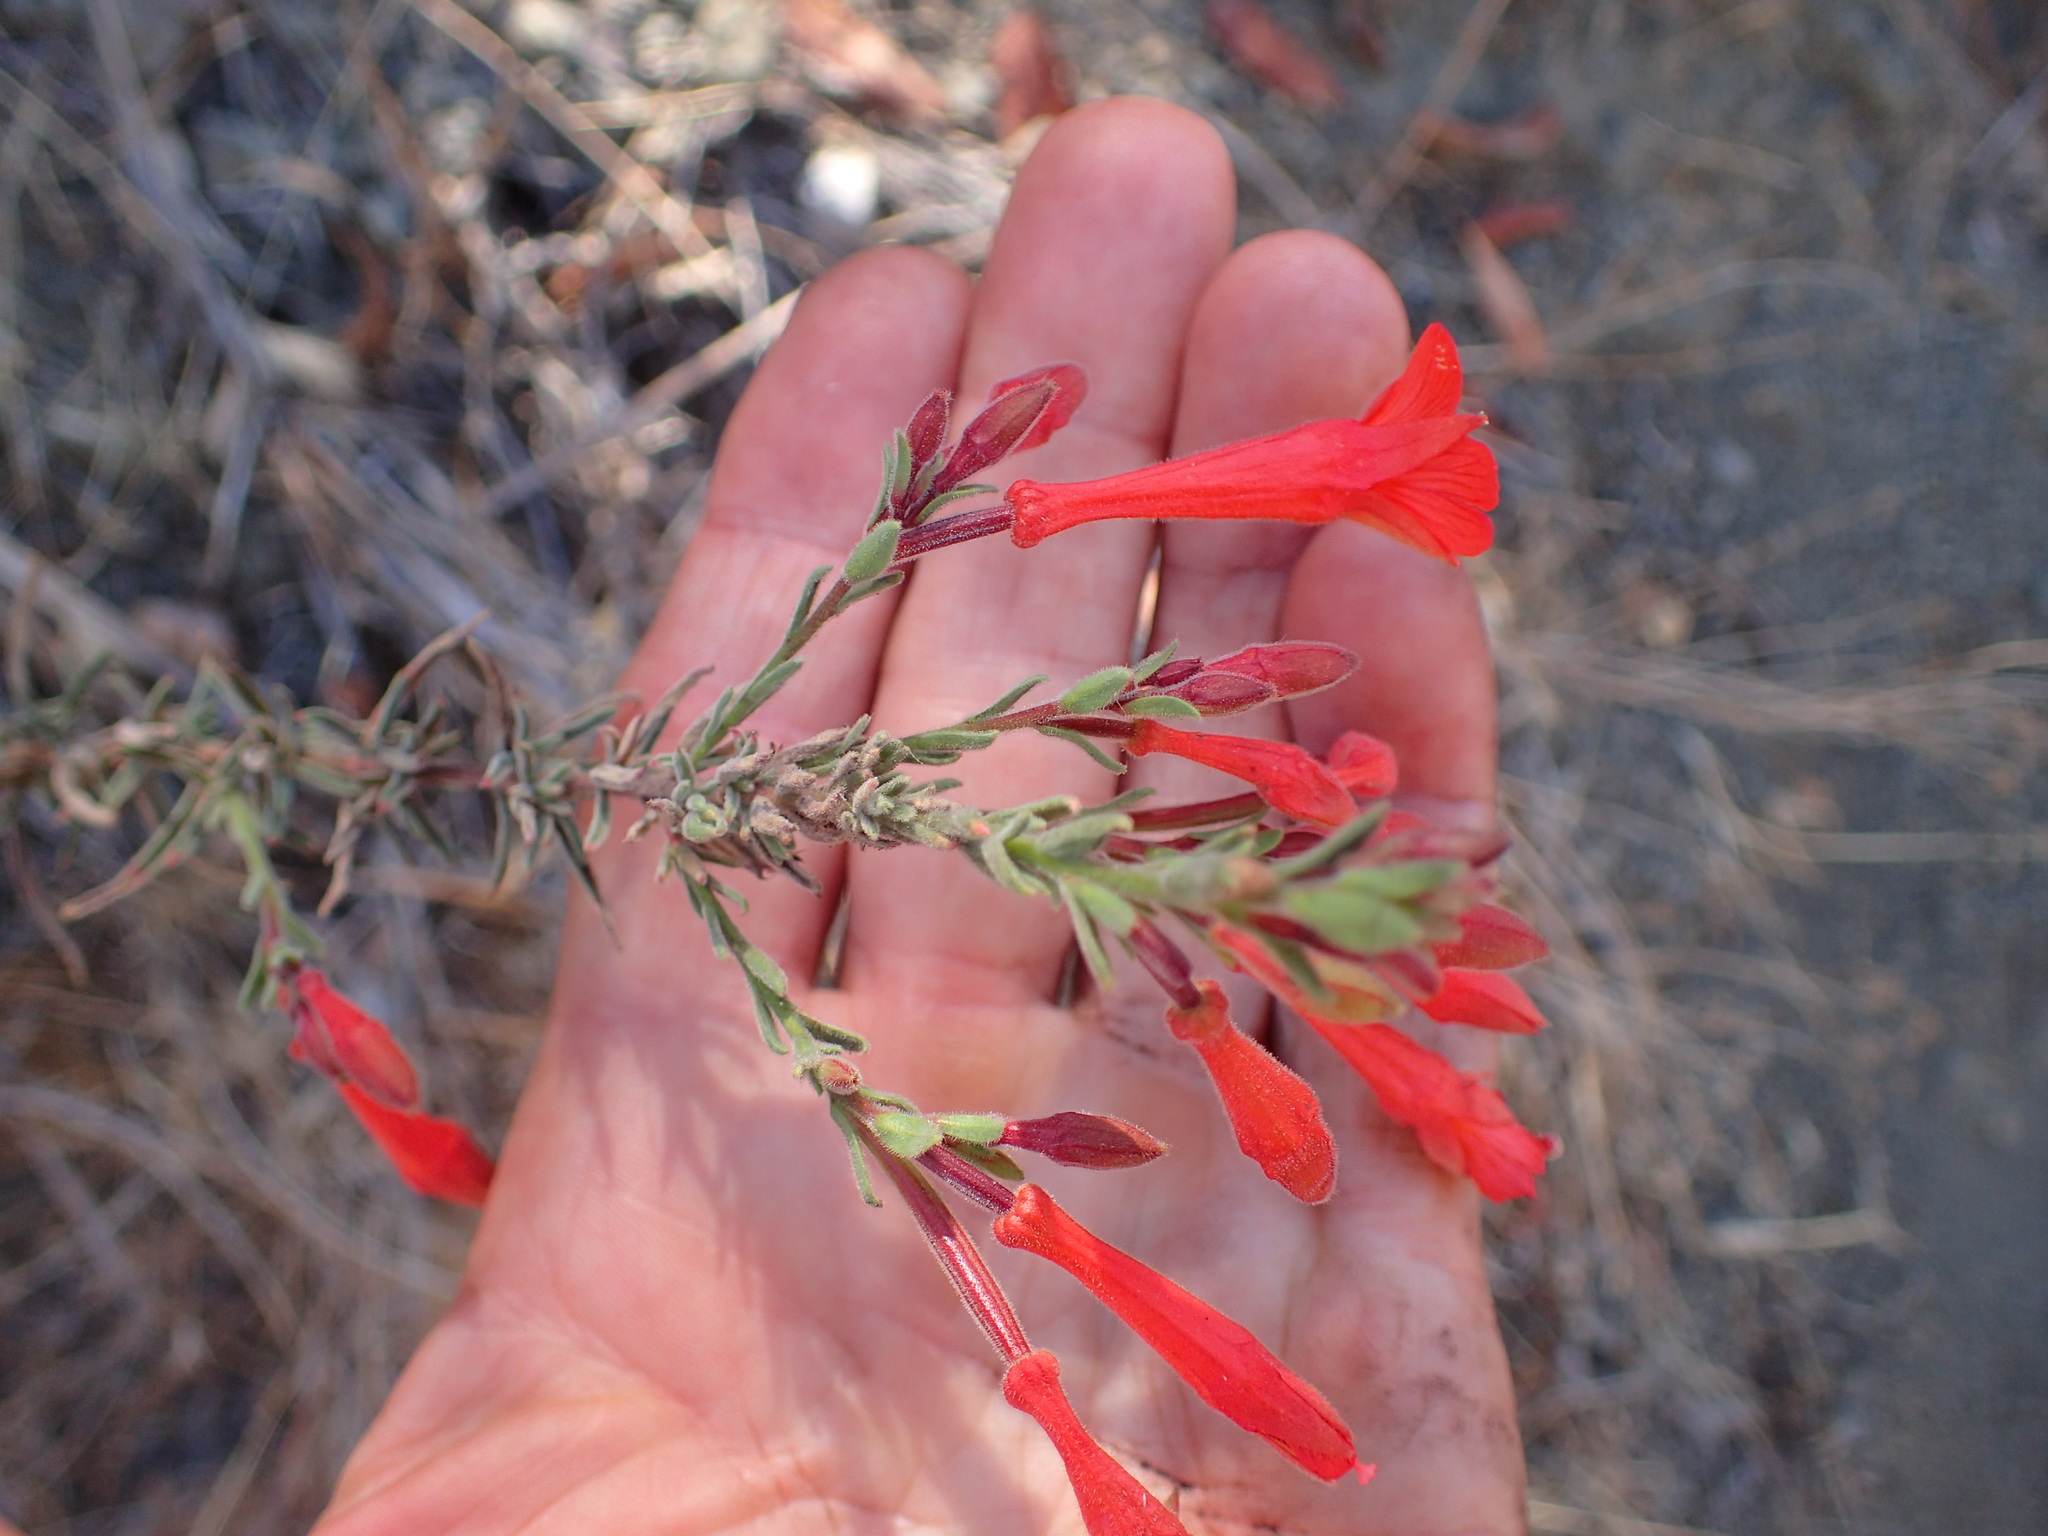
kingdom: Plantae
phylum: Tracheophyta
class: Magnoliopsida
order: Myrtales
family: Onagraceae
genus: Epilobium
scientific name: Epilobium canum
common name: California-fuchsia
